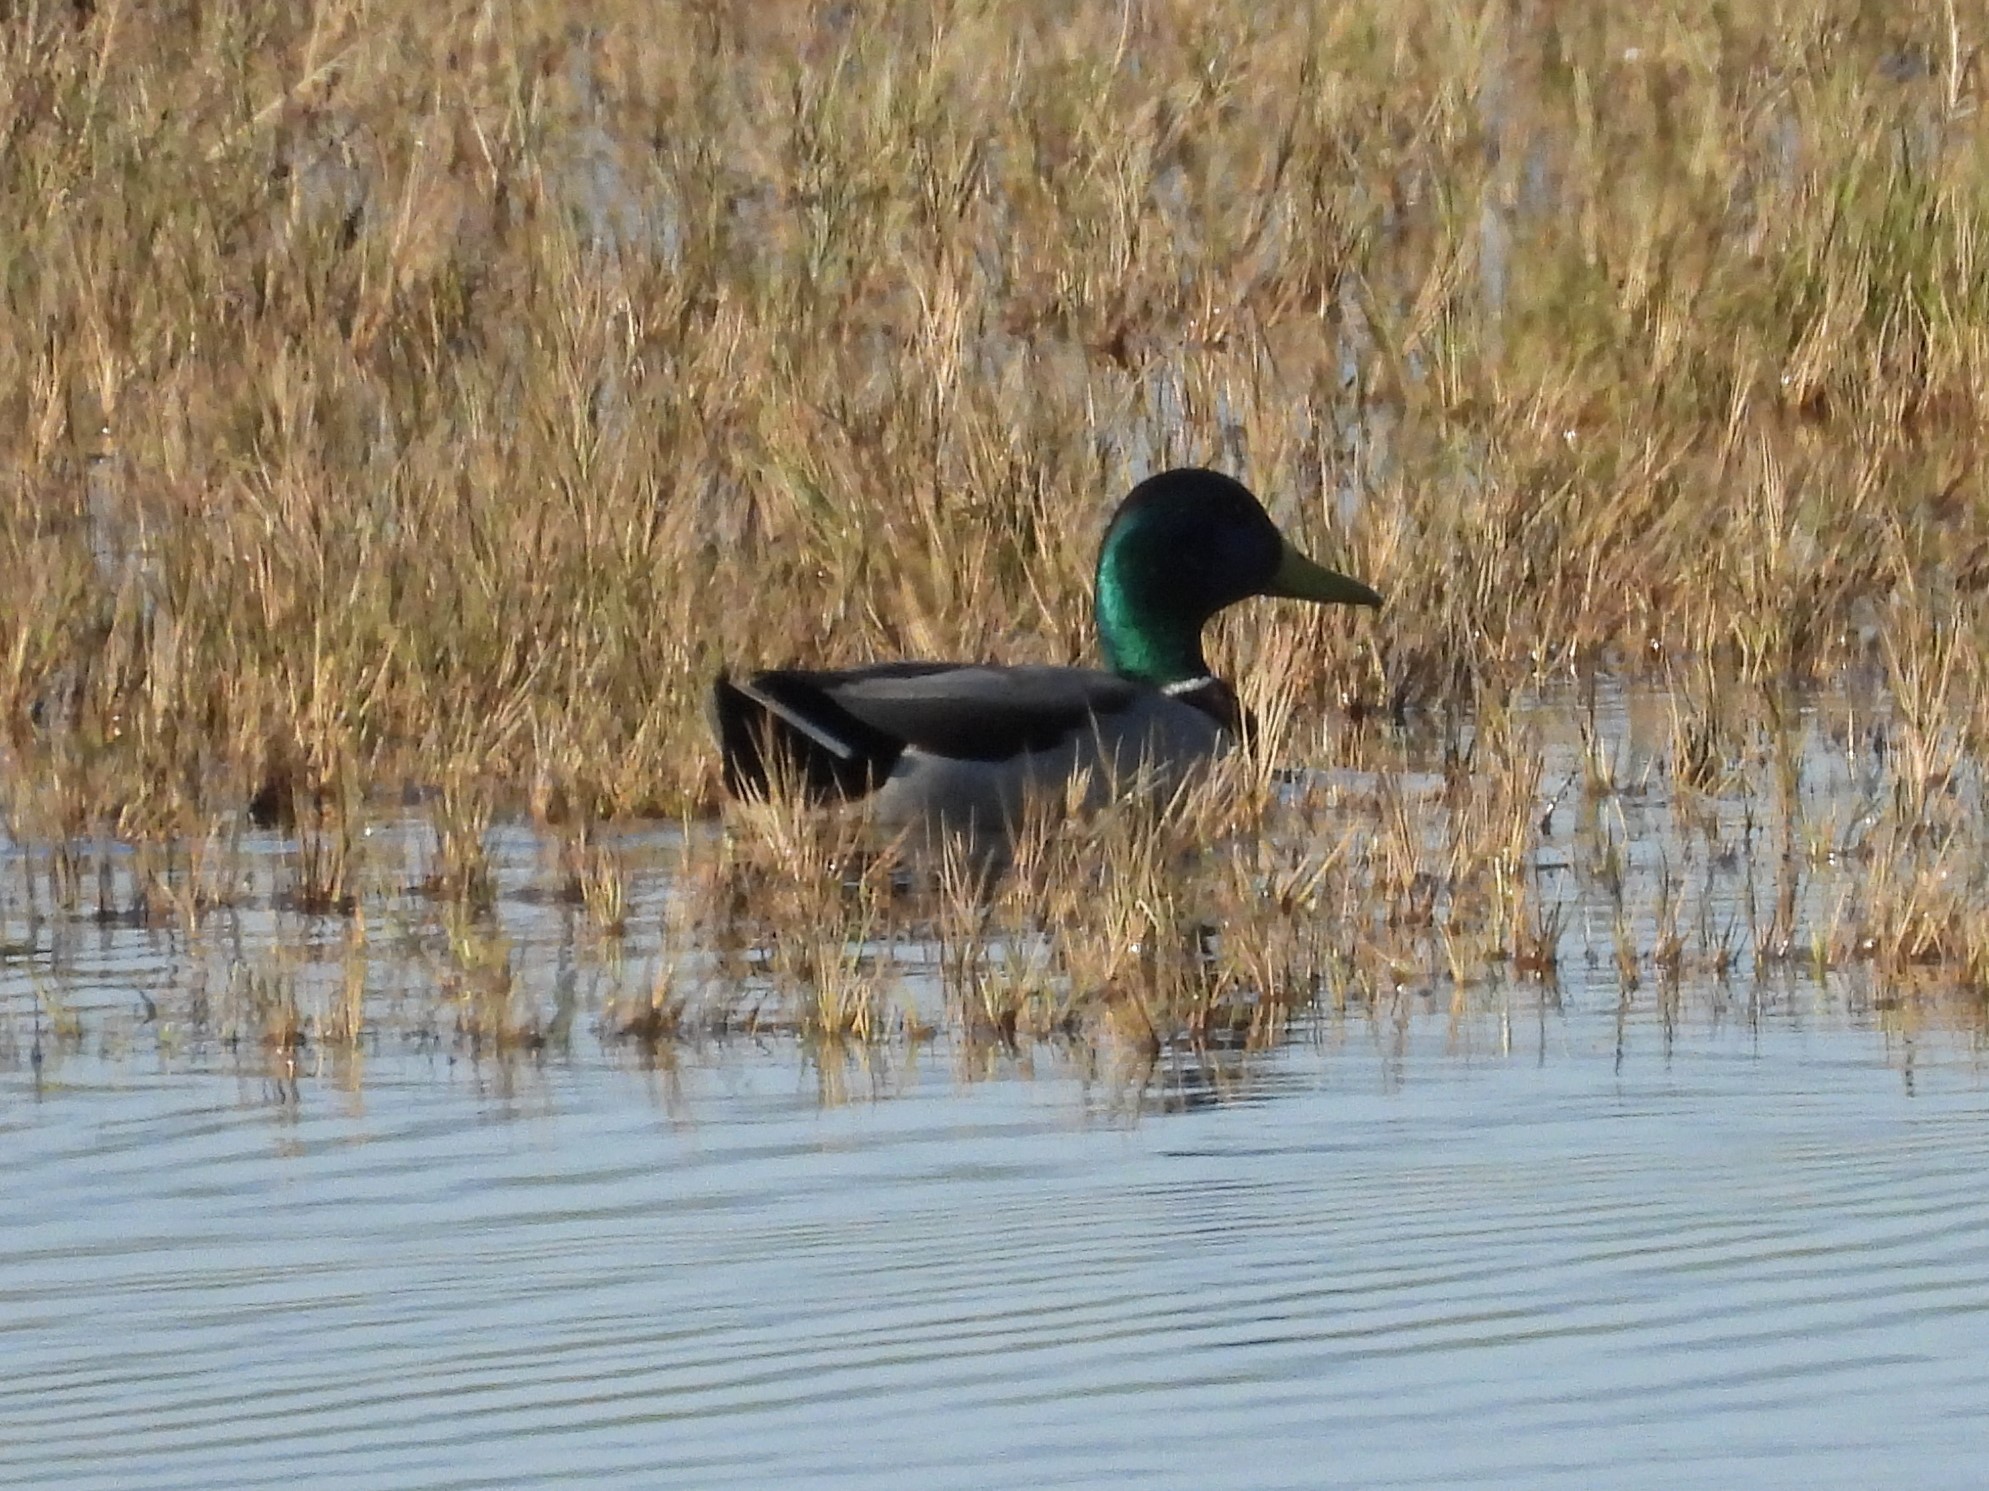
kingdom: Animalia
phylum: Chordata
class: Aves
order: Anseriformes
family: Anatidae
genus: Anas
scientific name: Anas platyrhynchos
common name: Mallard
